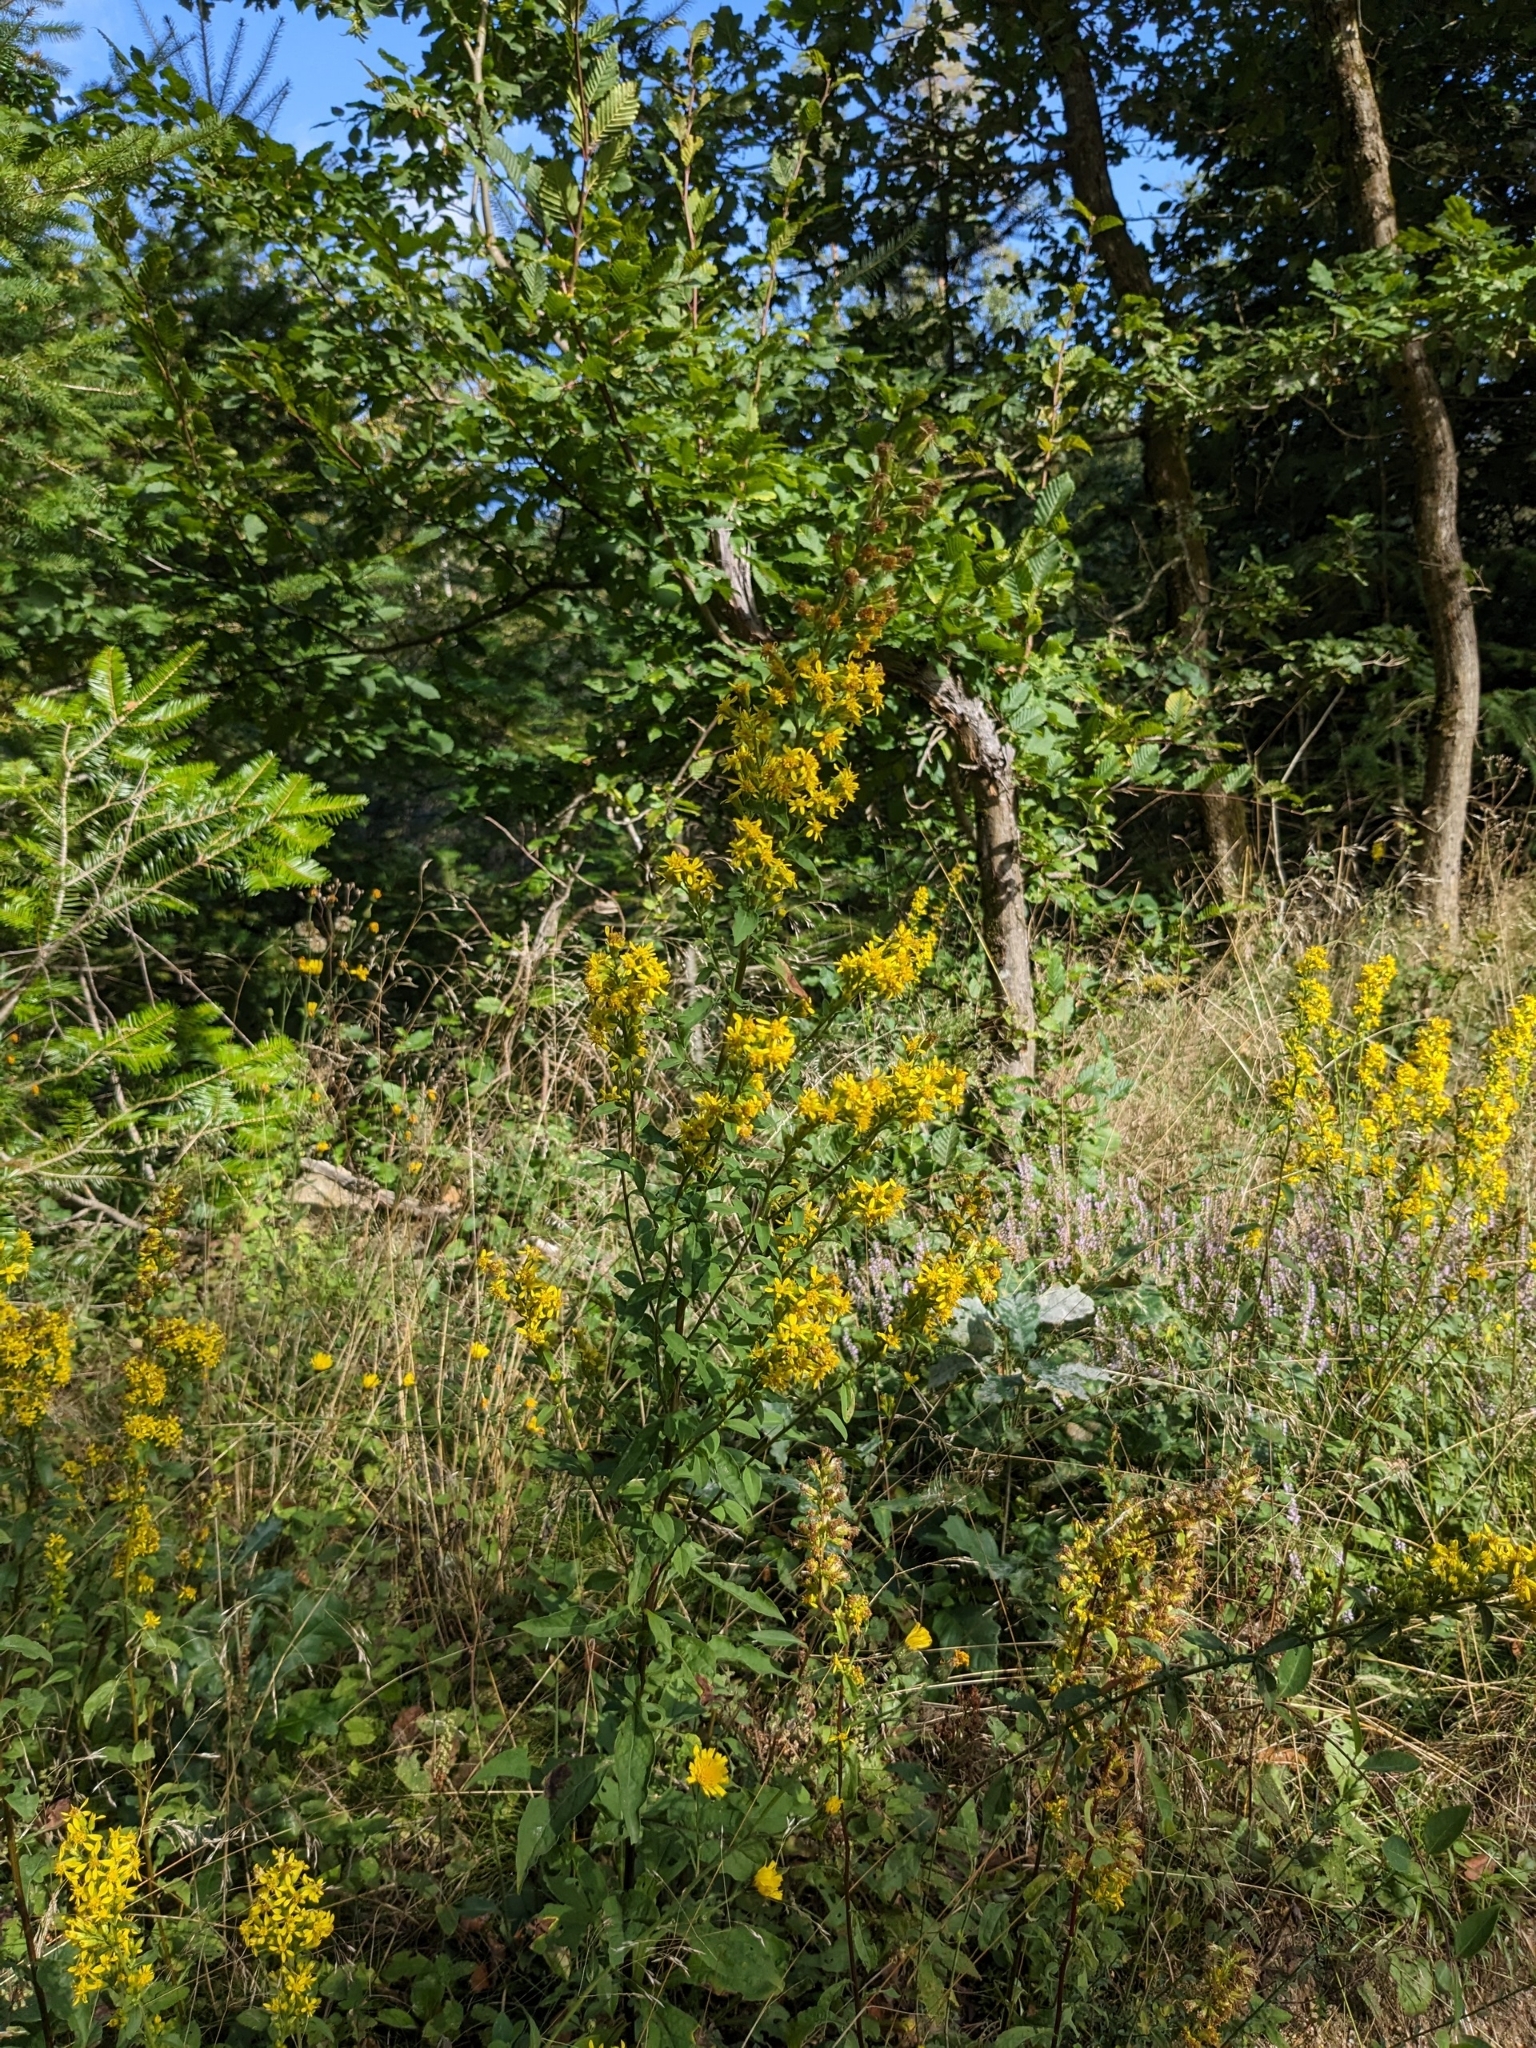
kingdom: Plantae
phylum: Tracheophyta
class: Magnoliopsida
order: Asterales
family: Asteraceae
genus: Solidago
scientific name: Solidago virgaurea
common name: Goldenrod
